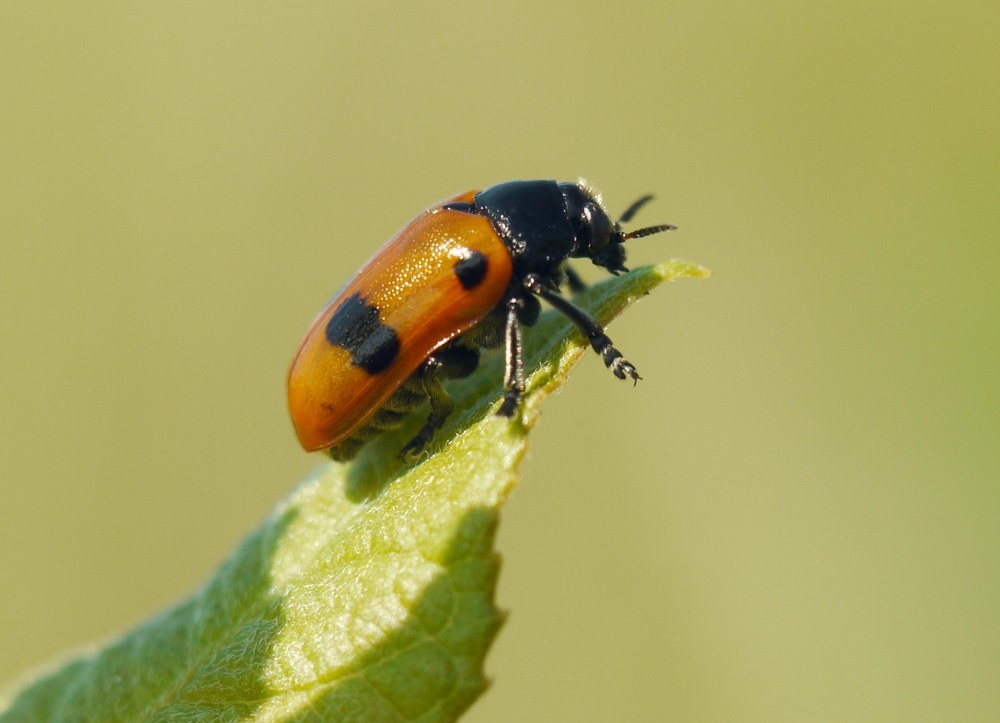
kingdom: Animalia
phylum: Arthropoda
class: Insecta
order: Coleoptera
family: Chrysomelidae
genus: Clytra
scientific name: Clytra quadripunctata
